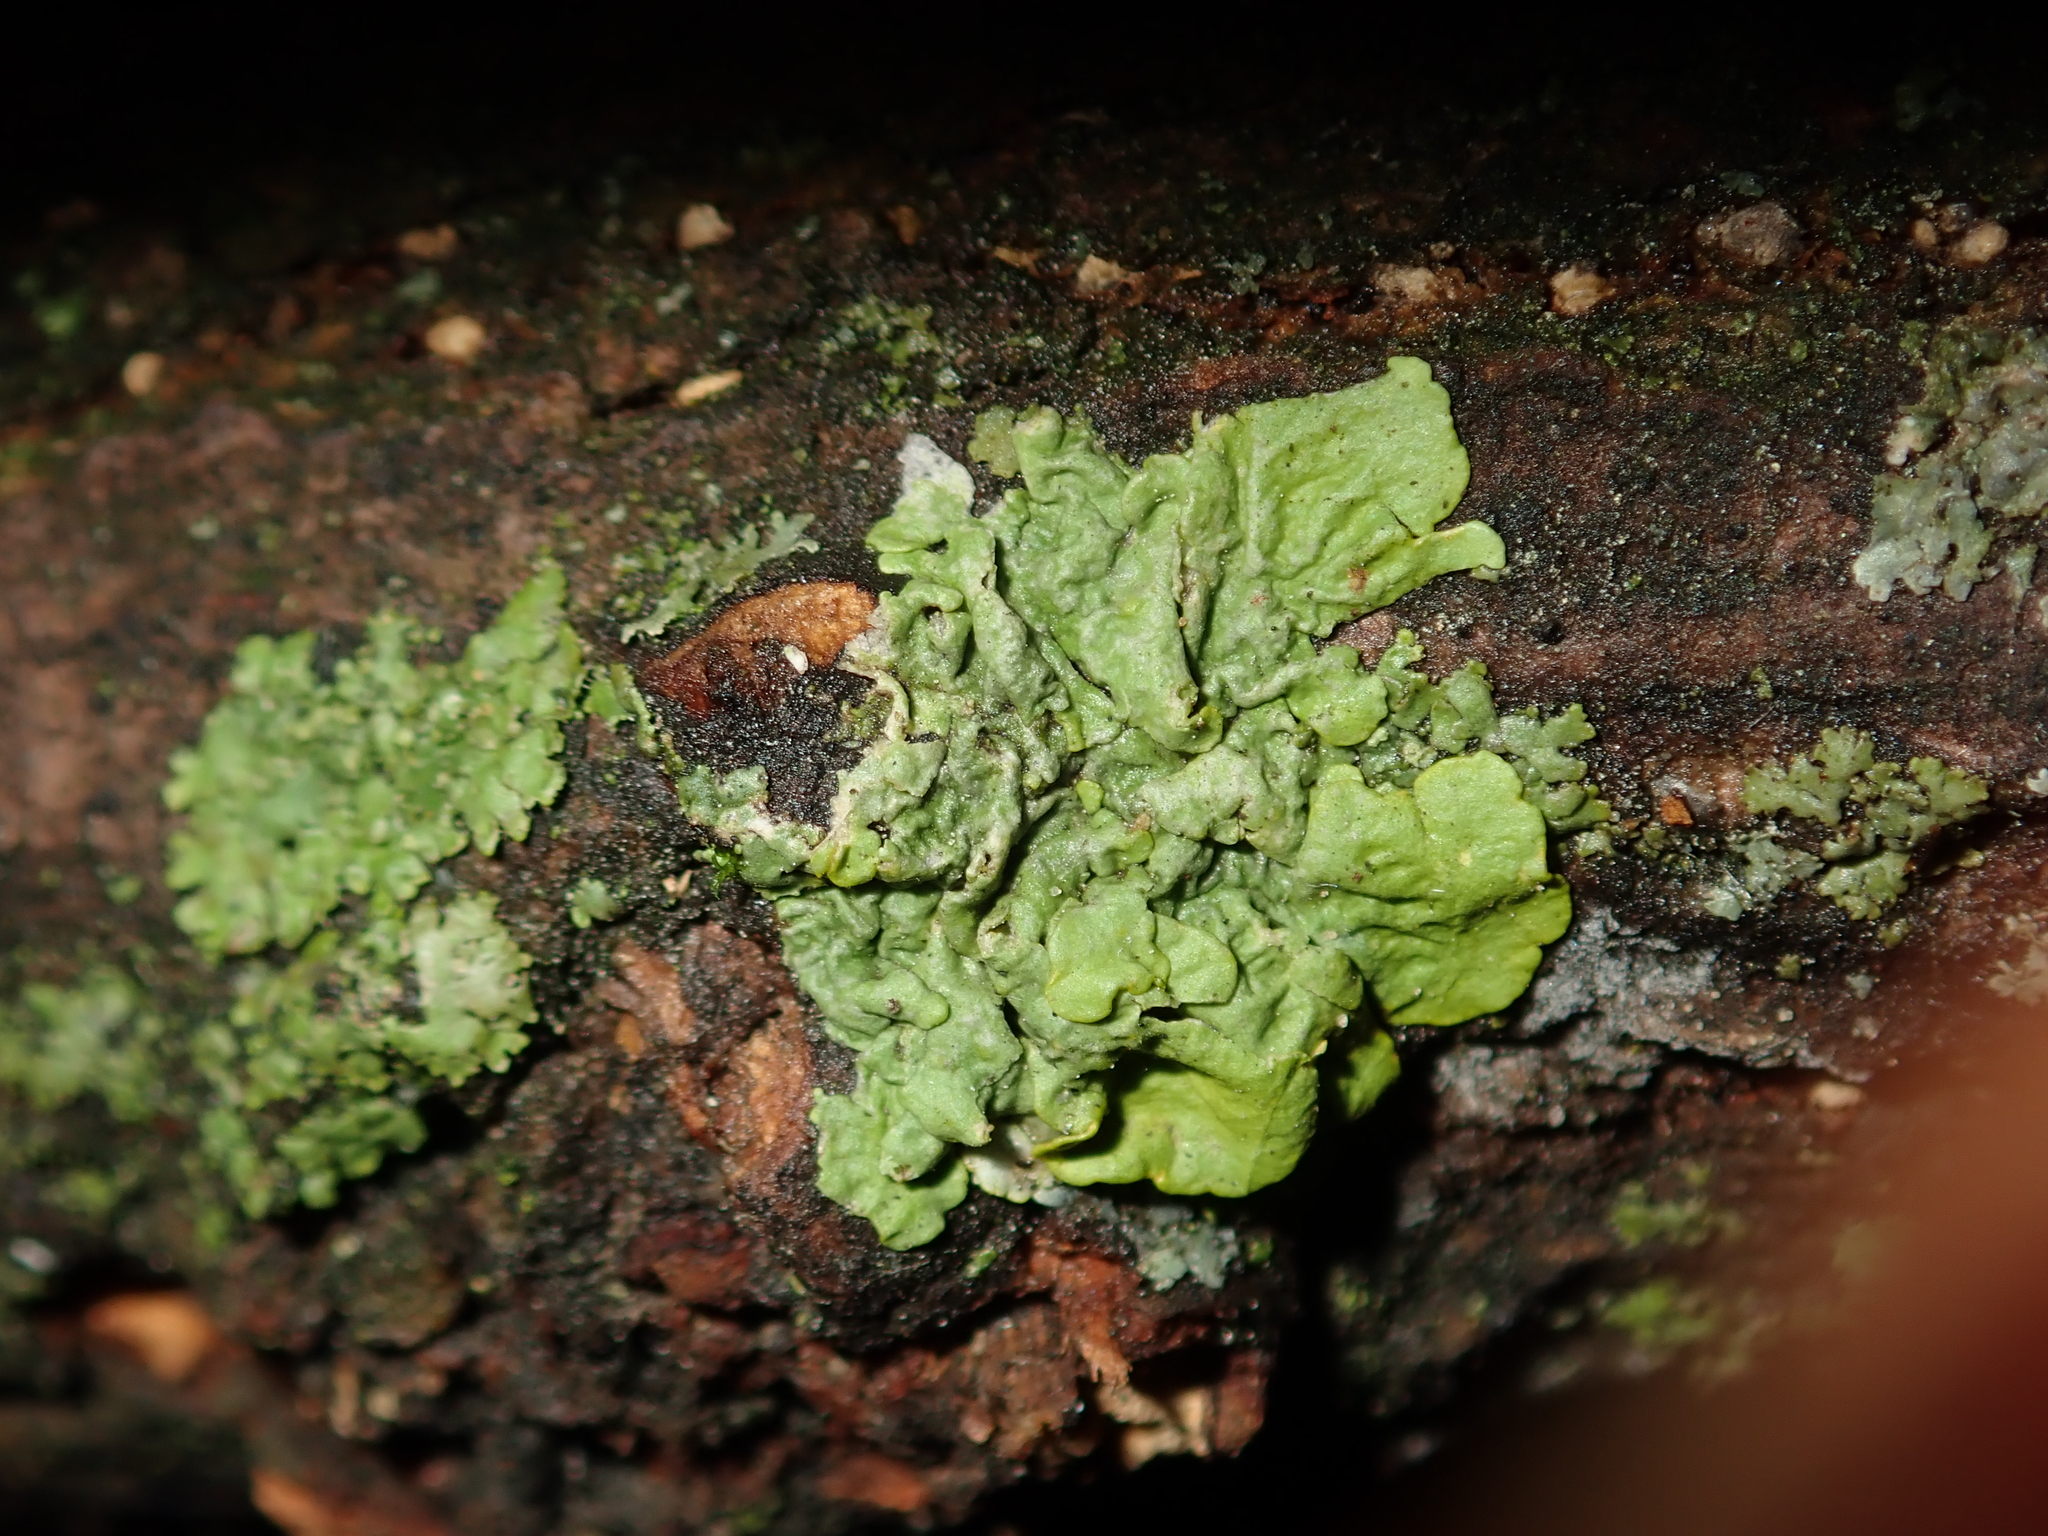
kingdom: Fungi
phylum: Ascomycota
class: Lecanoromycetes
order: Teloschistales
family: Teloschistaceae
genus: Xanthoria
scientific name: Xanthoria parietina
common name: Common orange lichen
